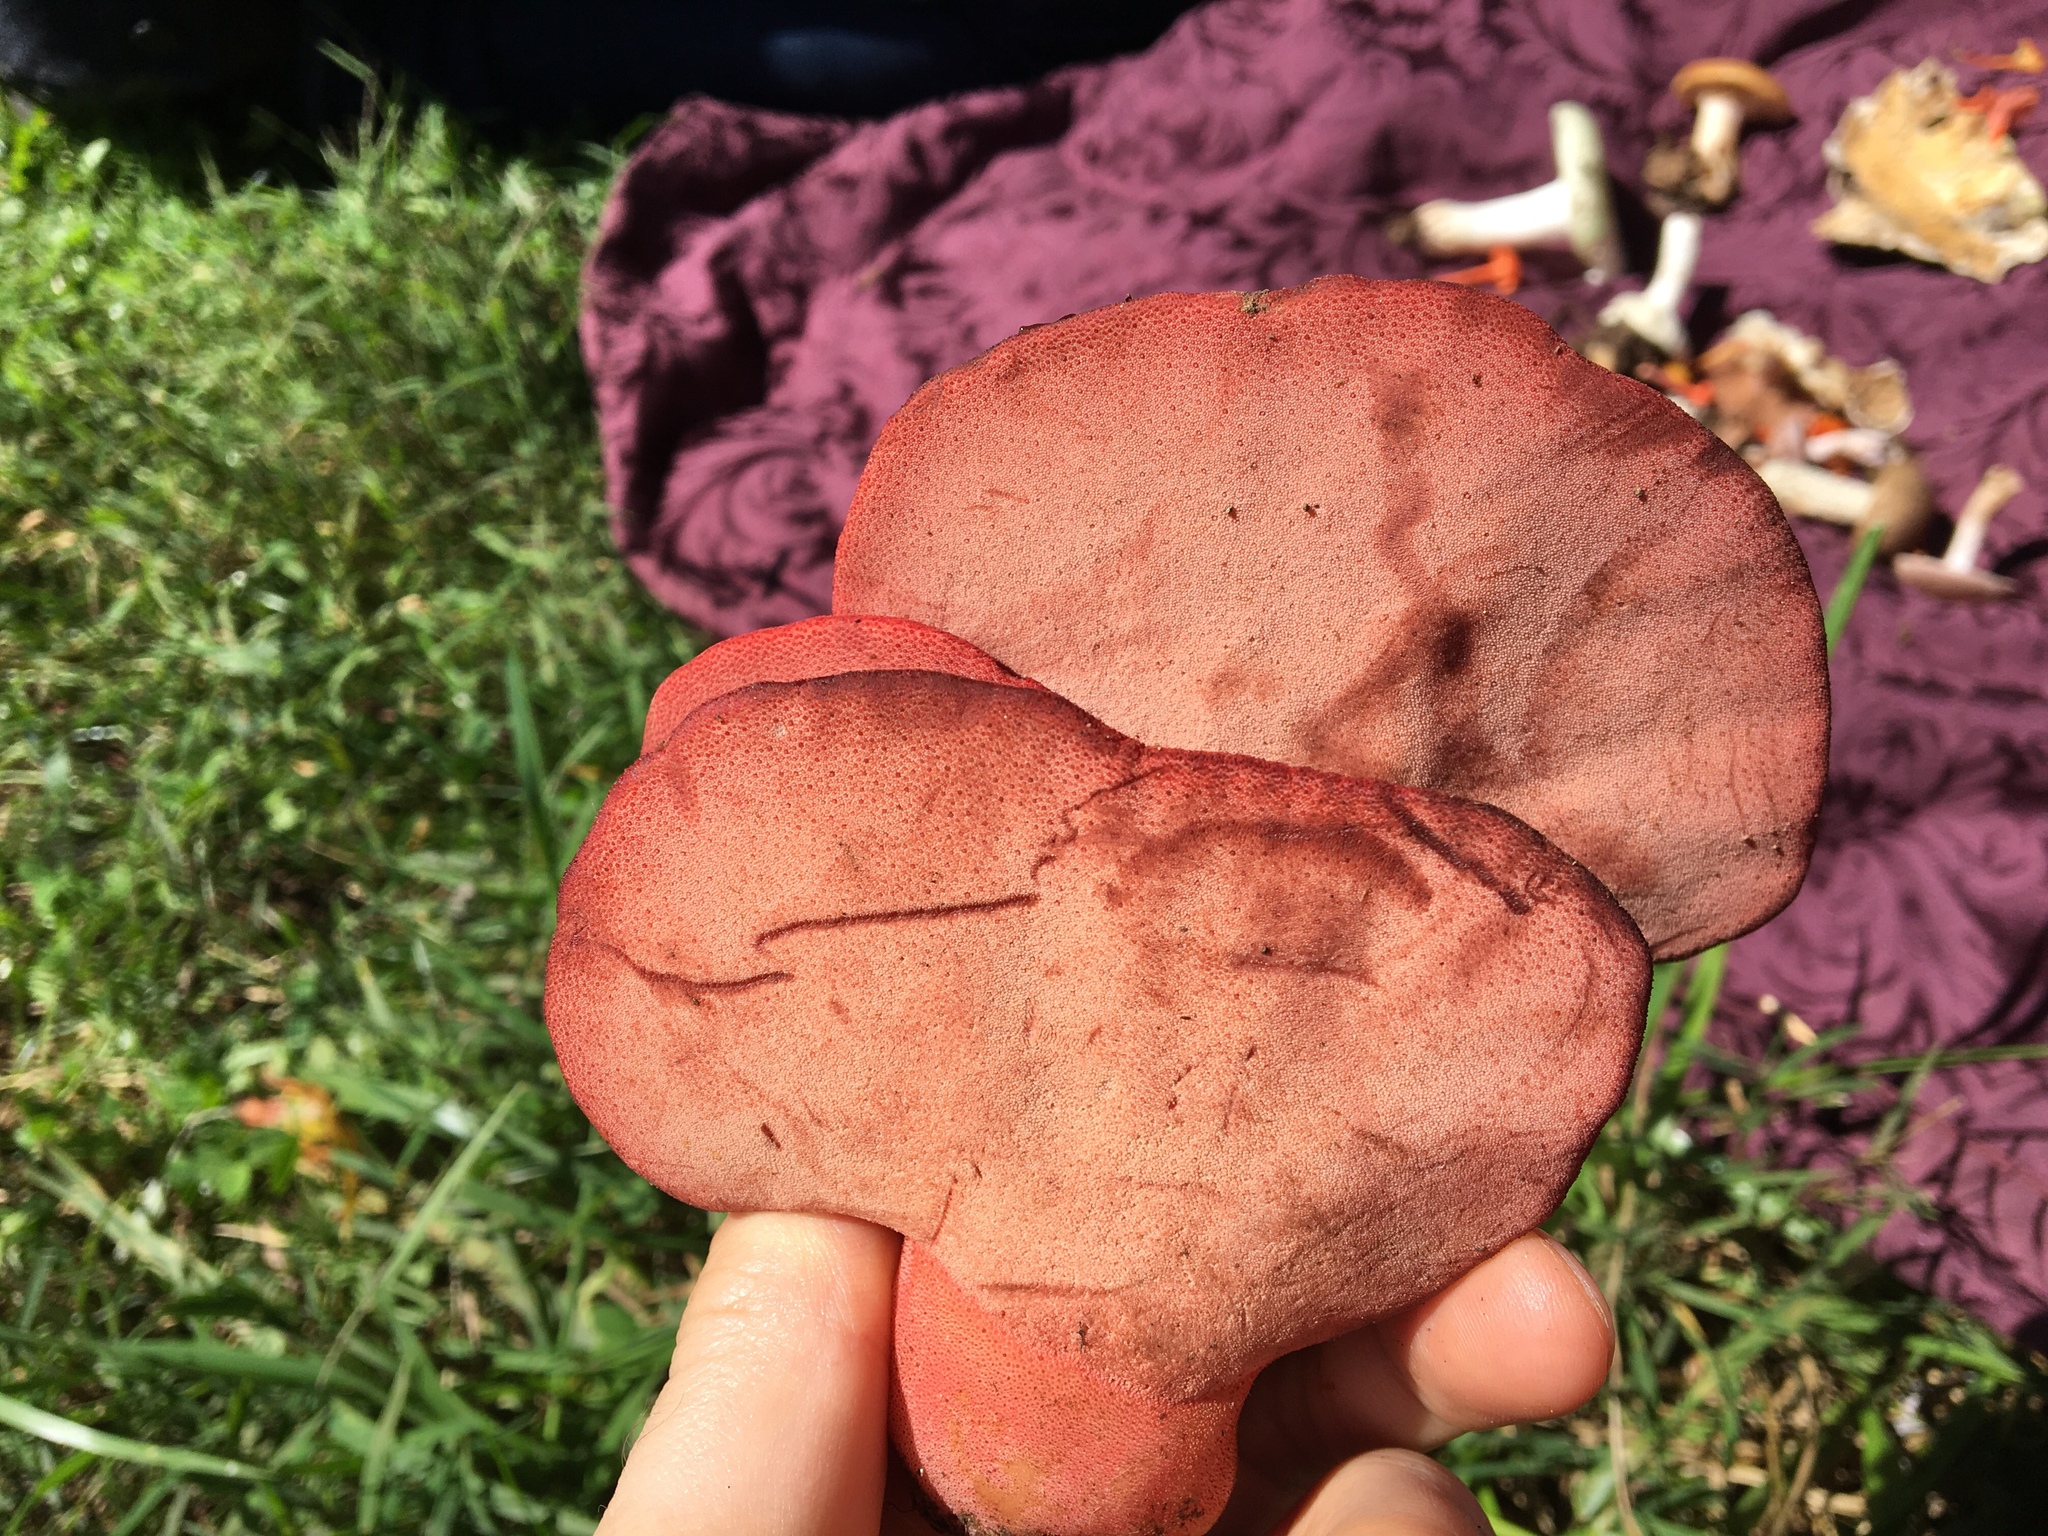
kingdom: Fungi
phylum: Basidiomycota
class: Agaricomycetes
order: Agaricales
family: Fistulinaceae
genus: Fistulina
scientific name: Fistulina hepatica
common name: Beef-steak fungus
